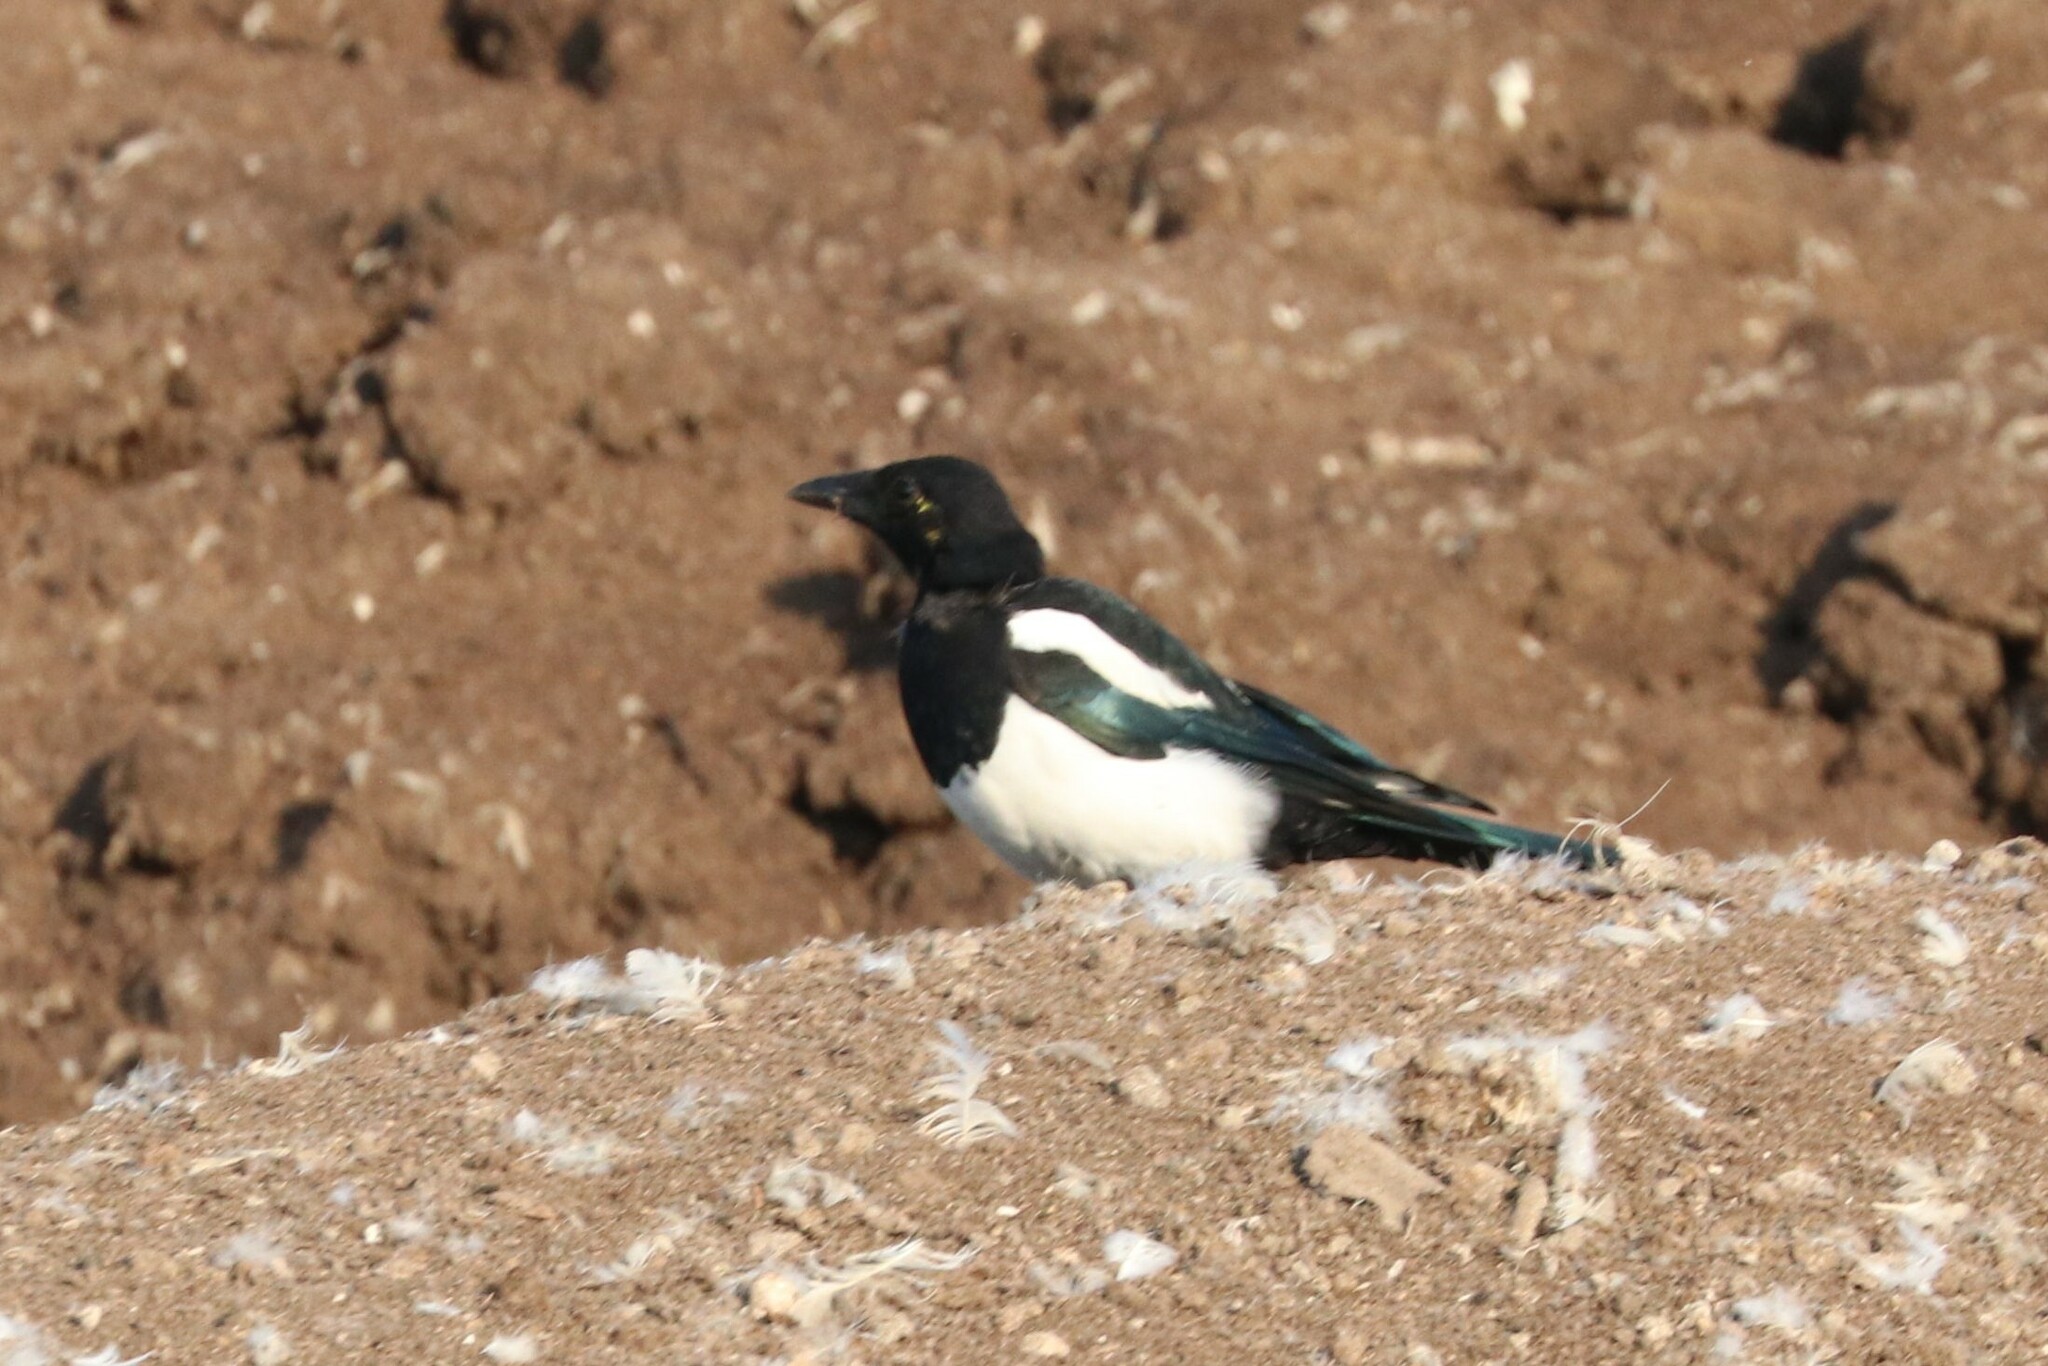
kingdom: Animalia
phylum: Chordata
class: Aves
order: Passeriformes
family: Corvidae
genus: Pica
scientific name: Pica pica
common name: Eurasian magpie
